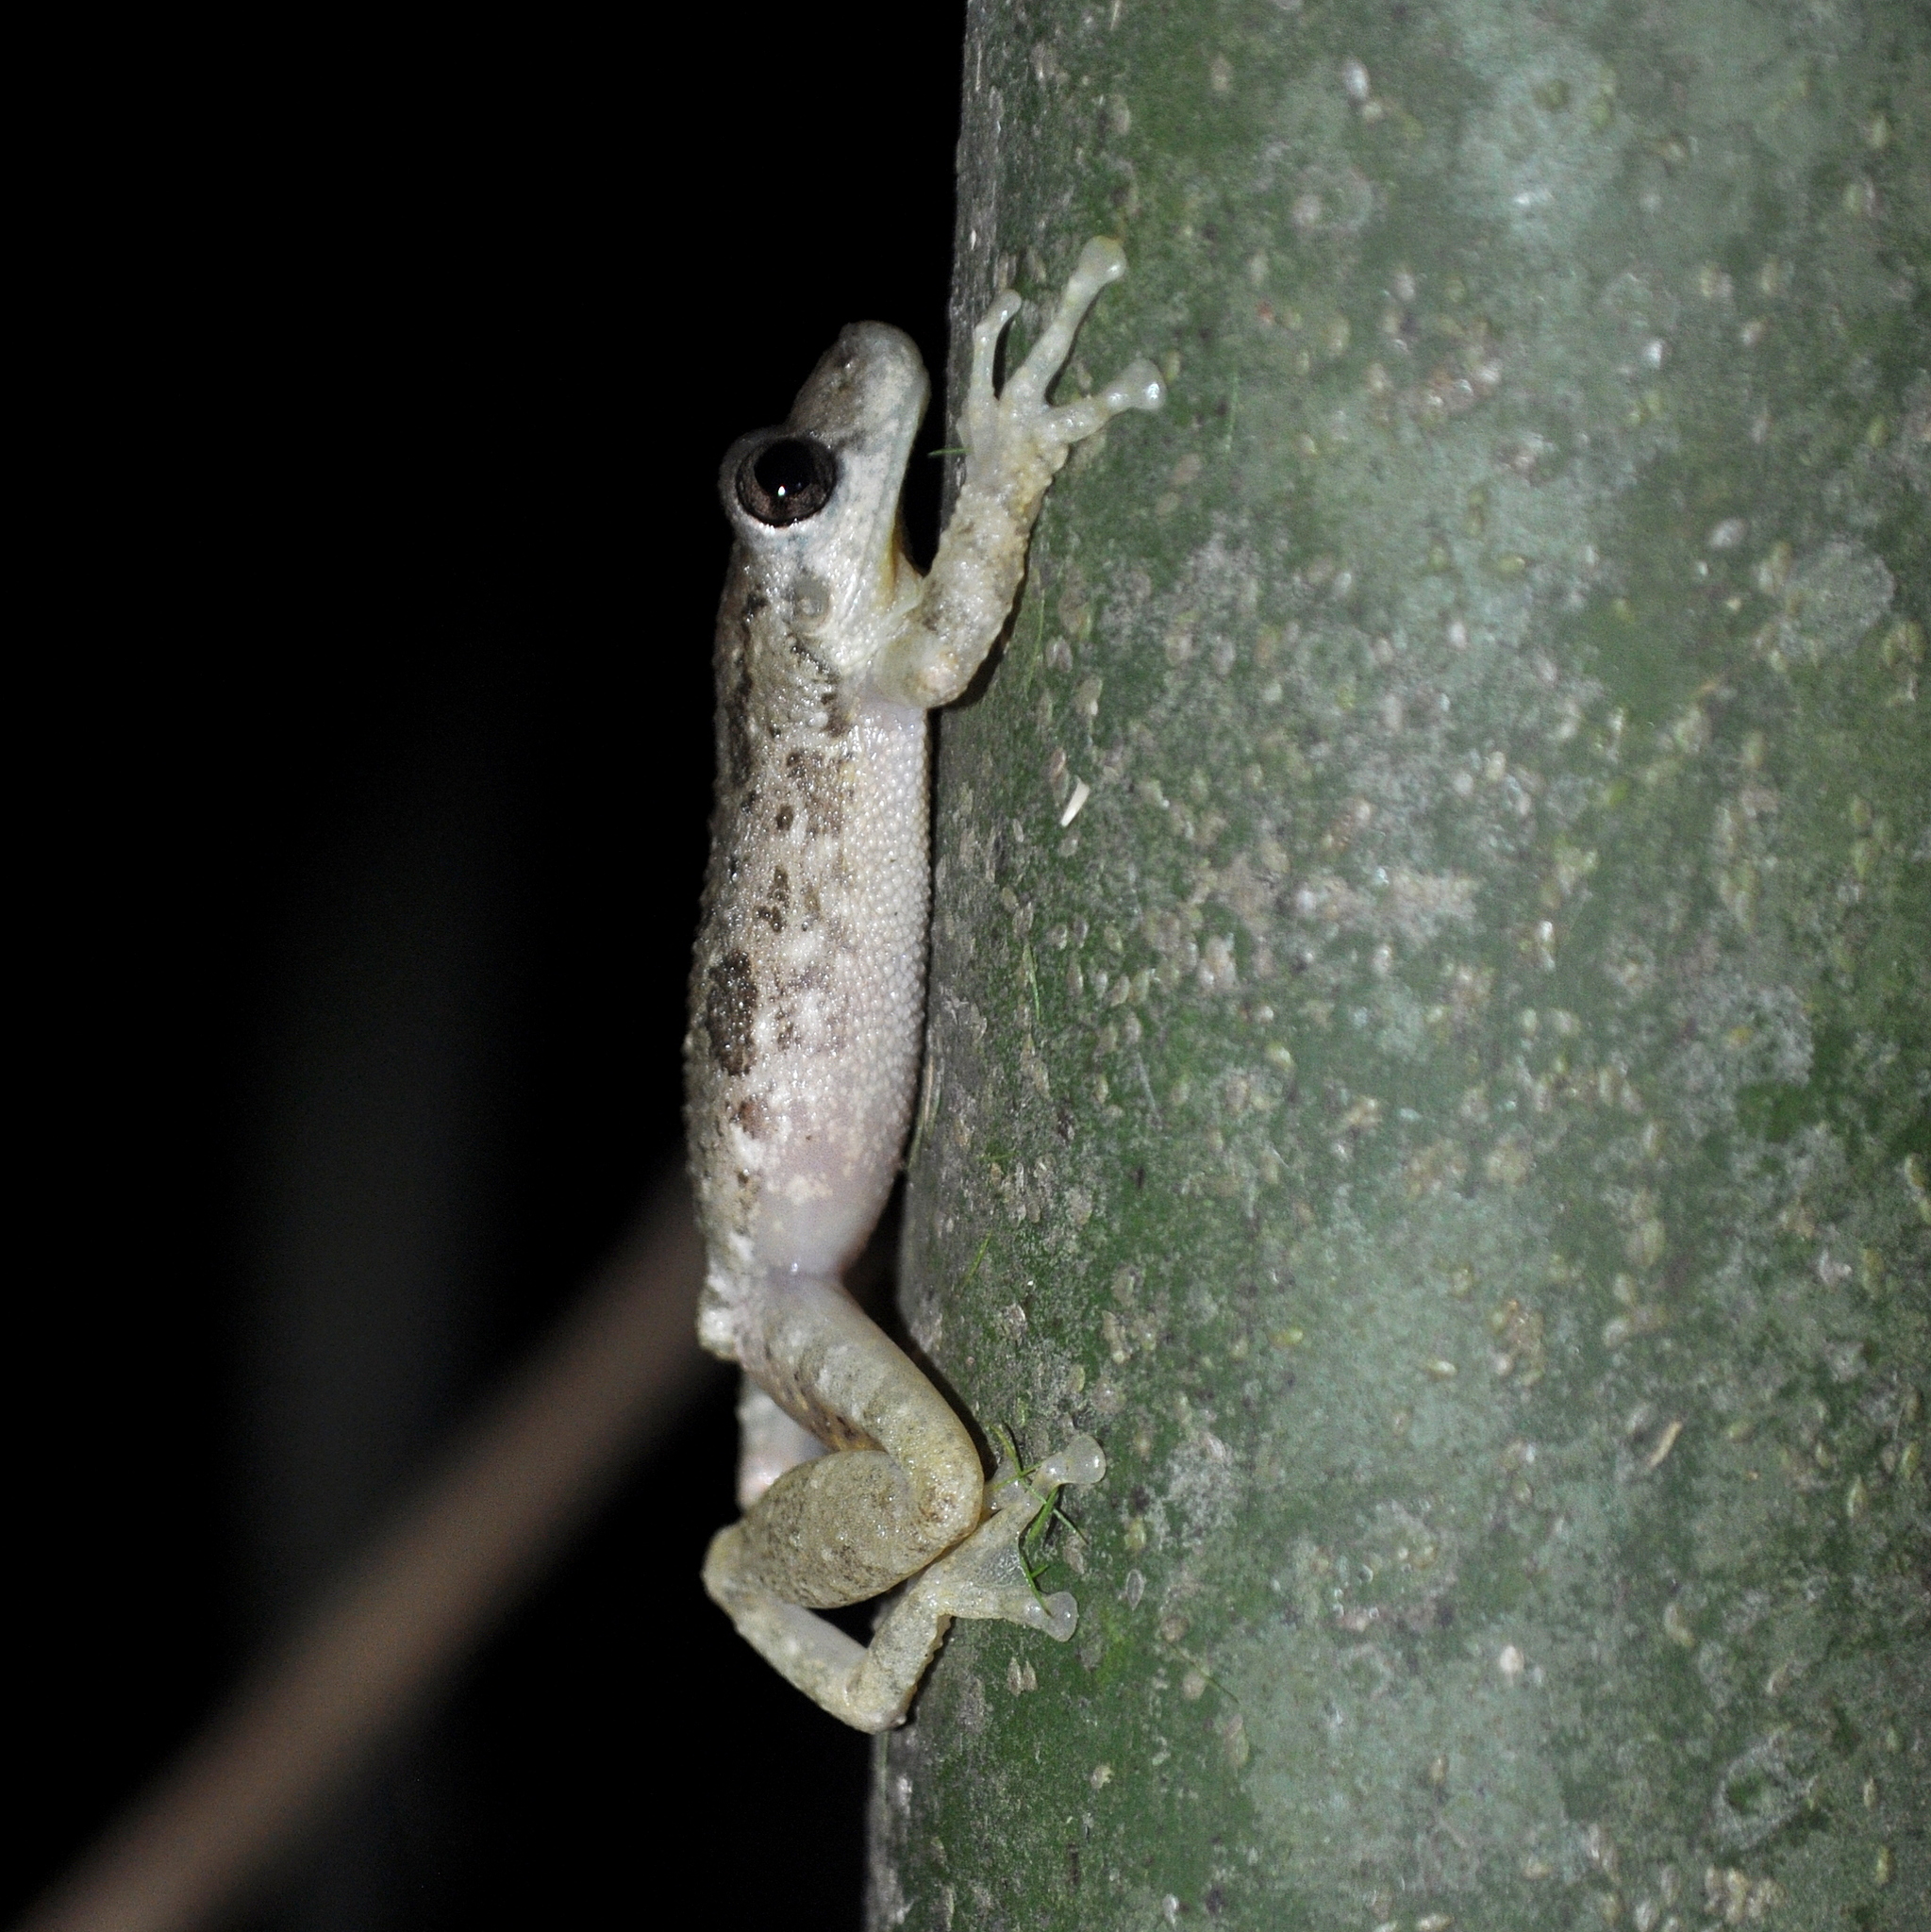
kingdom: Animalia
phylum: Chordata
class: Amphibia
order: Anura
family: Hylidae
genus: Scinax
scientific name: Scinax granulatus
